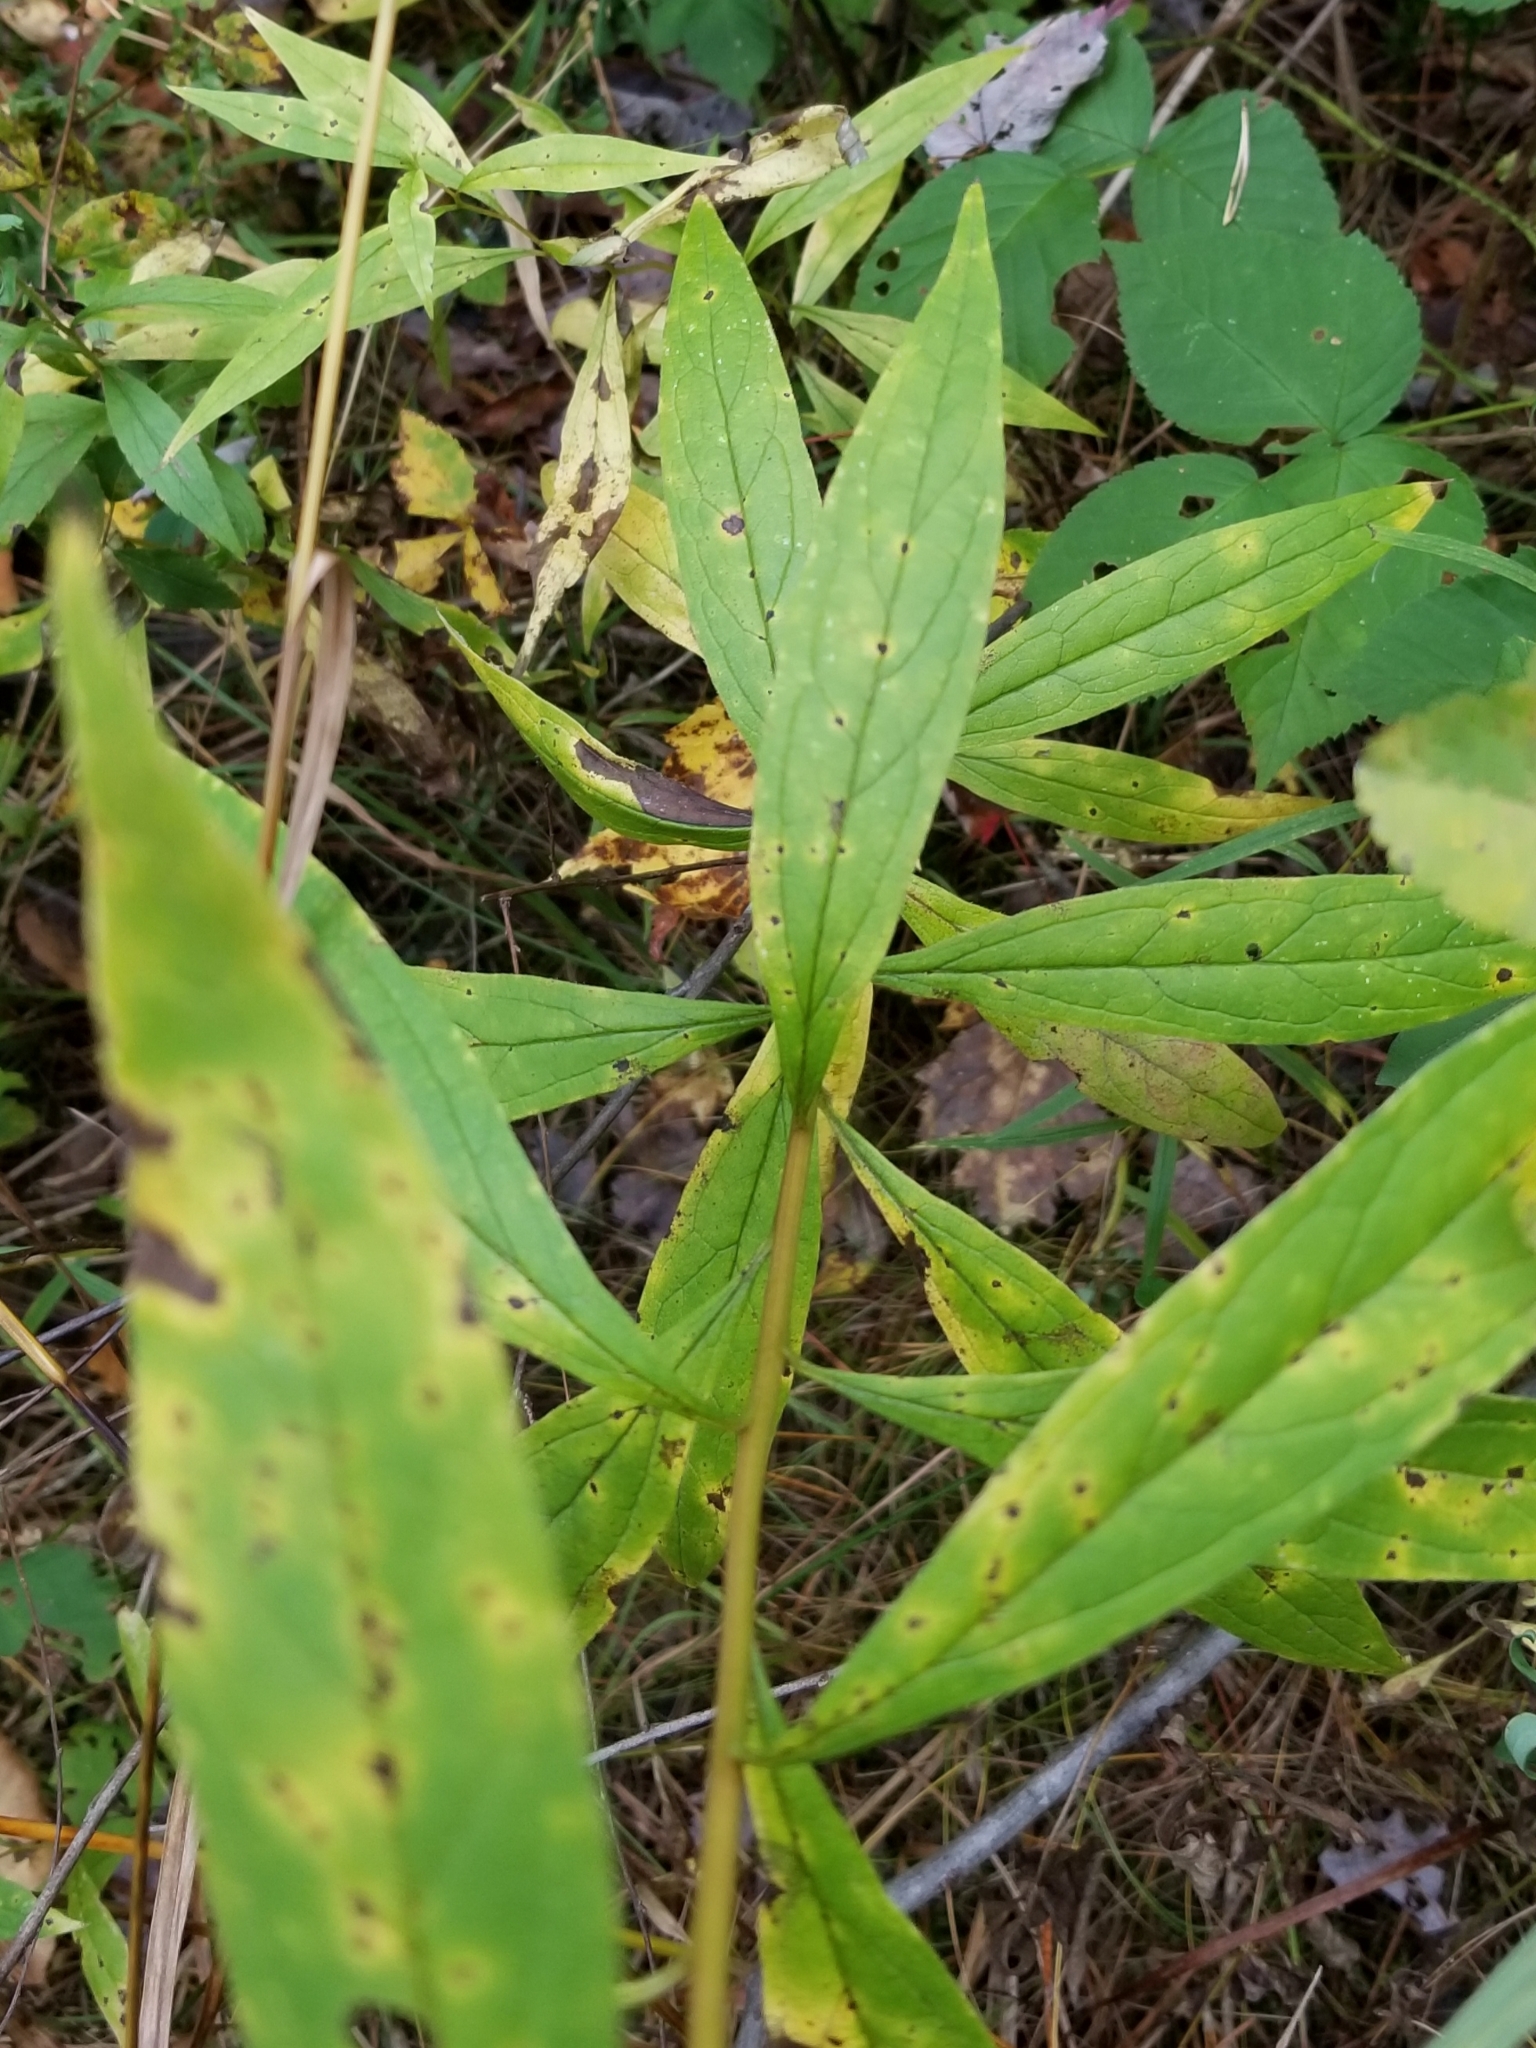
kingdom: Plantae
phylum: Tracheophyta
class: Magnoliopsida
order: Asterales
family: Asteraceae
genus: Doellingeria
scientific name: Doellingeria umbellata
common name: Flat-top white aster
